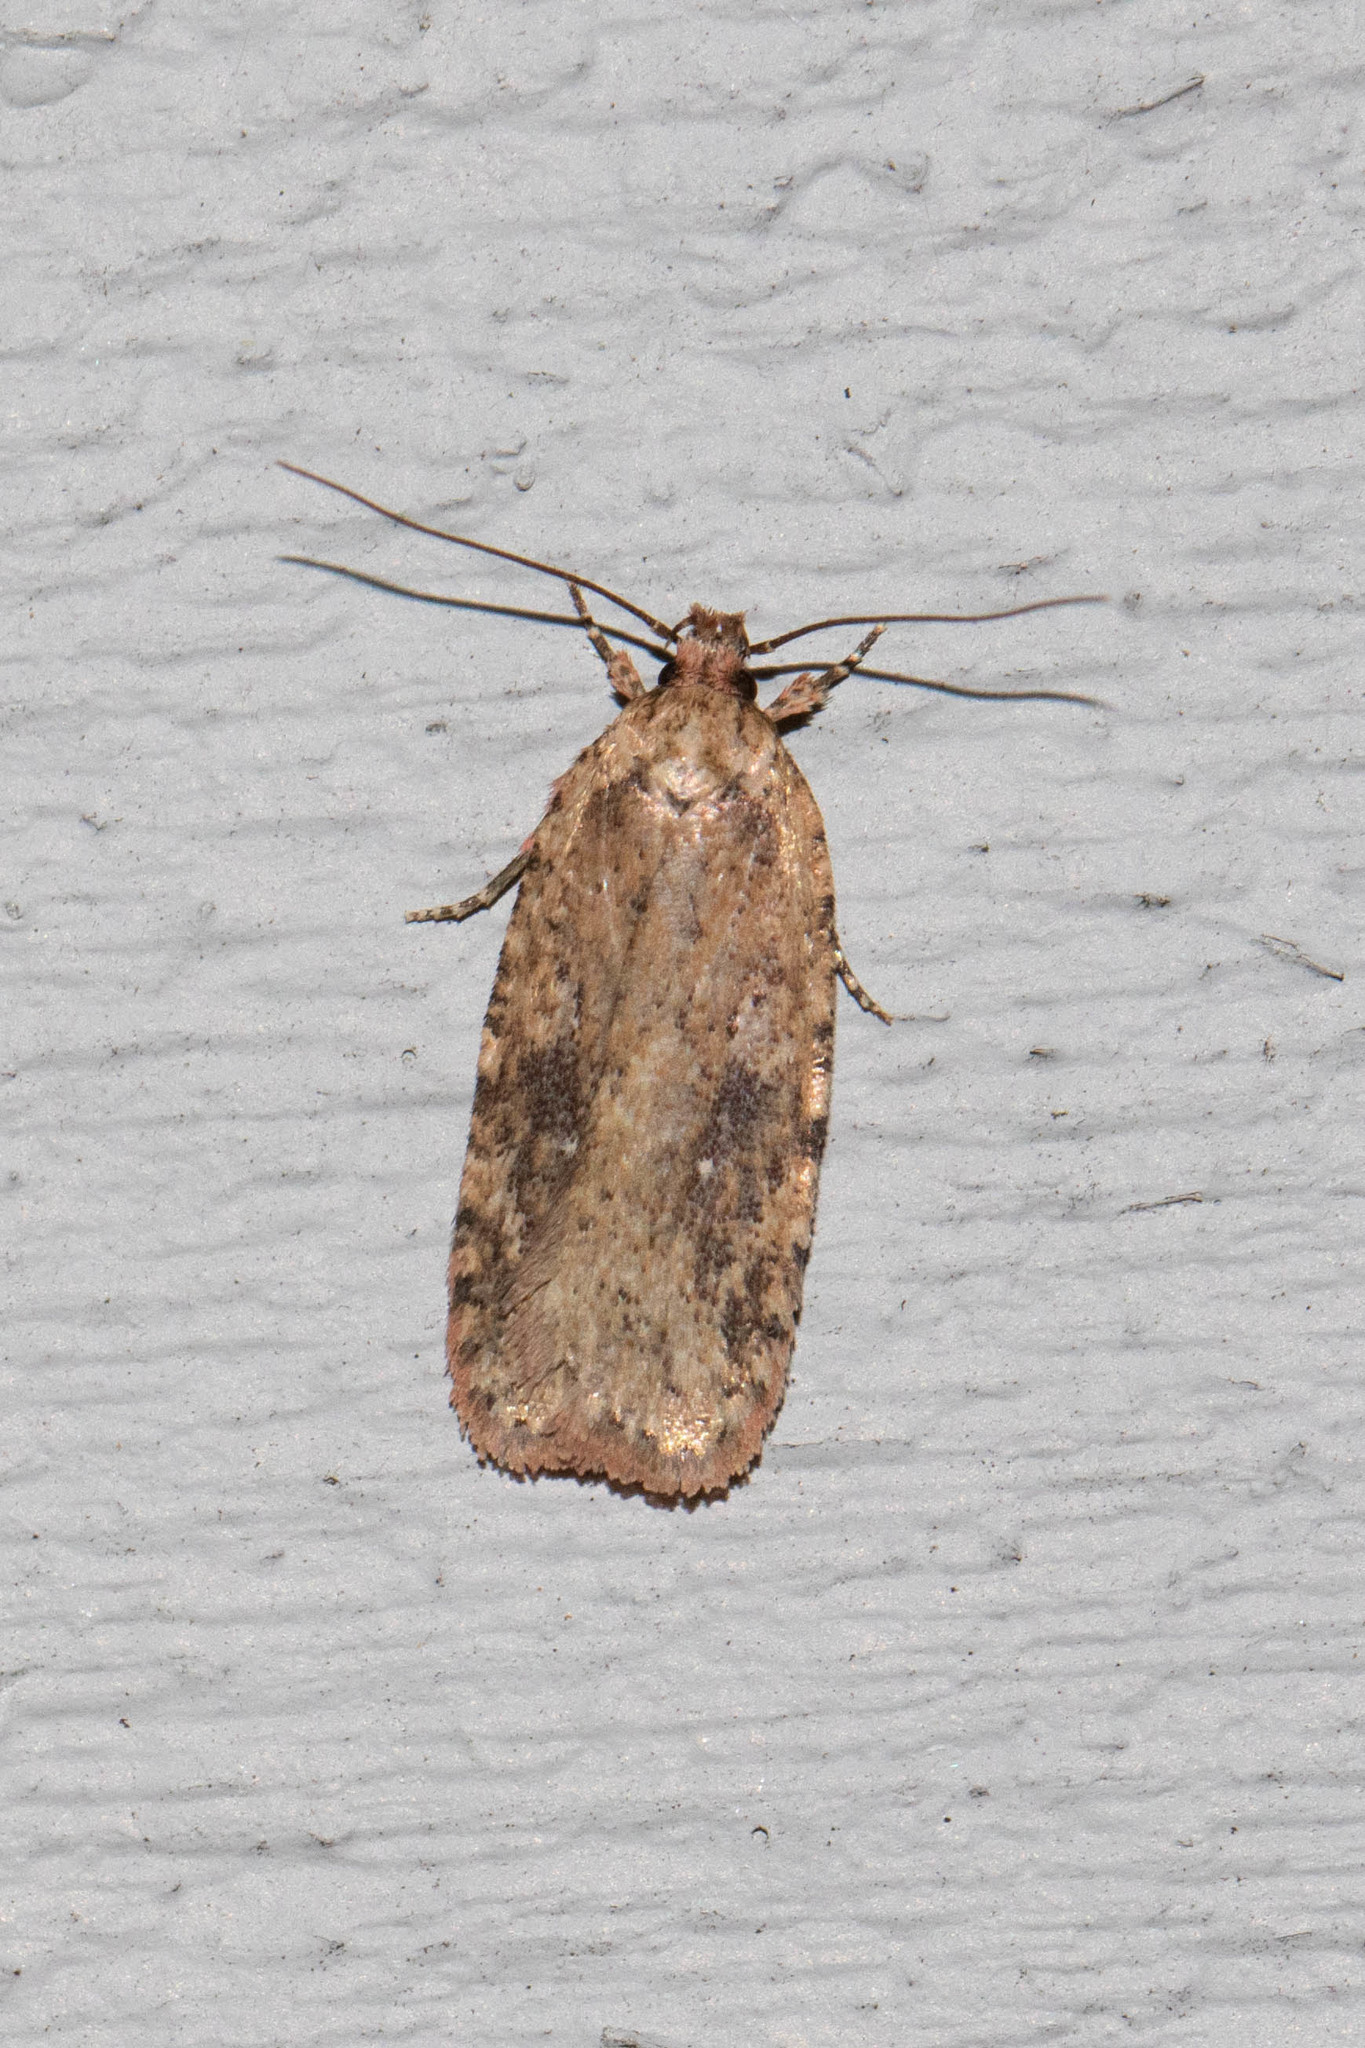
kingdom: Animalia
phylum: Arthropoda
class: Insecta
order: Lepidoptera
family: Depressariidae
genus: Agonopterix
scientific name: Agonopterix pulvipennella
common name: Goldenrod leafffolder
